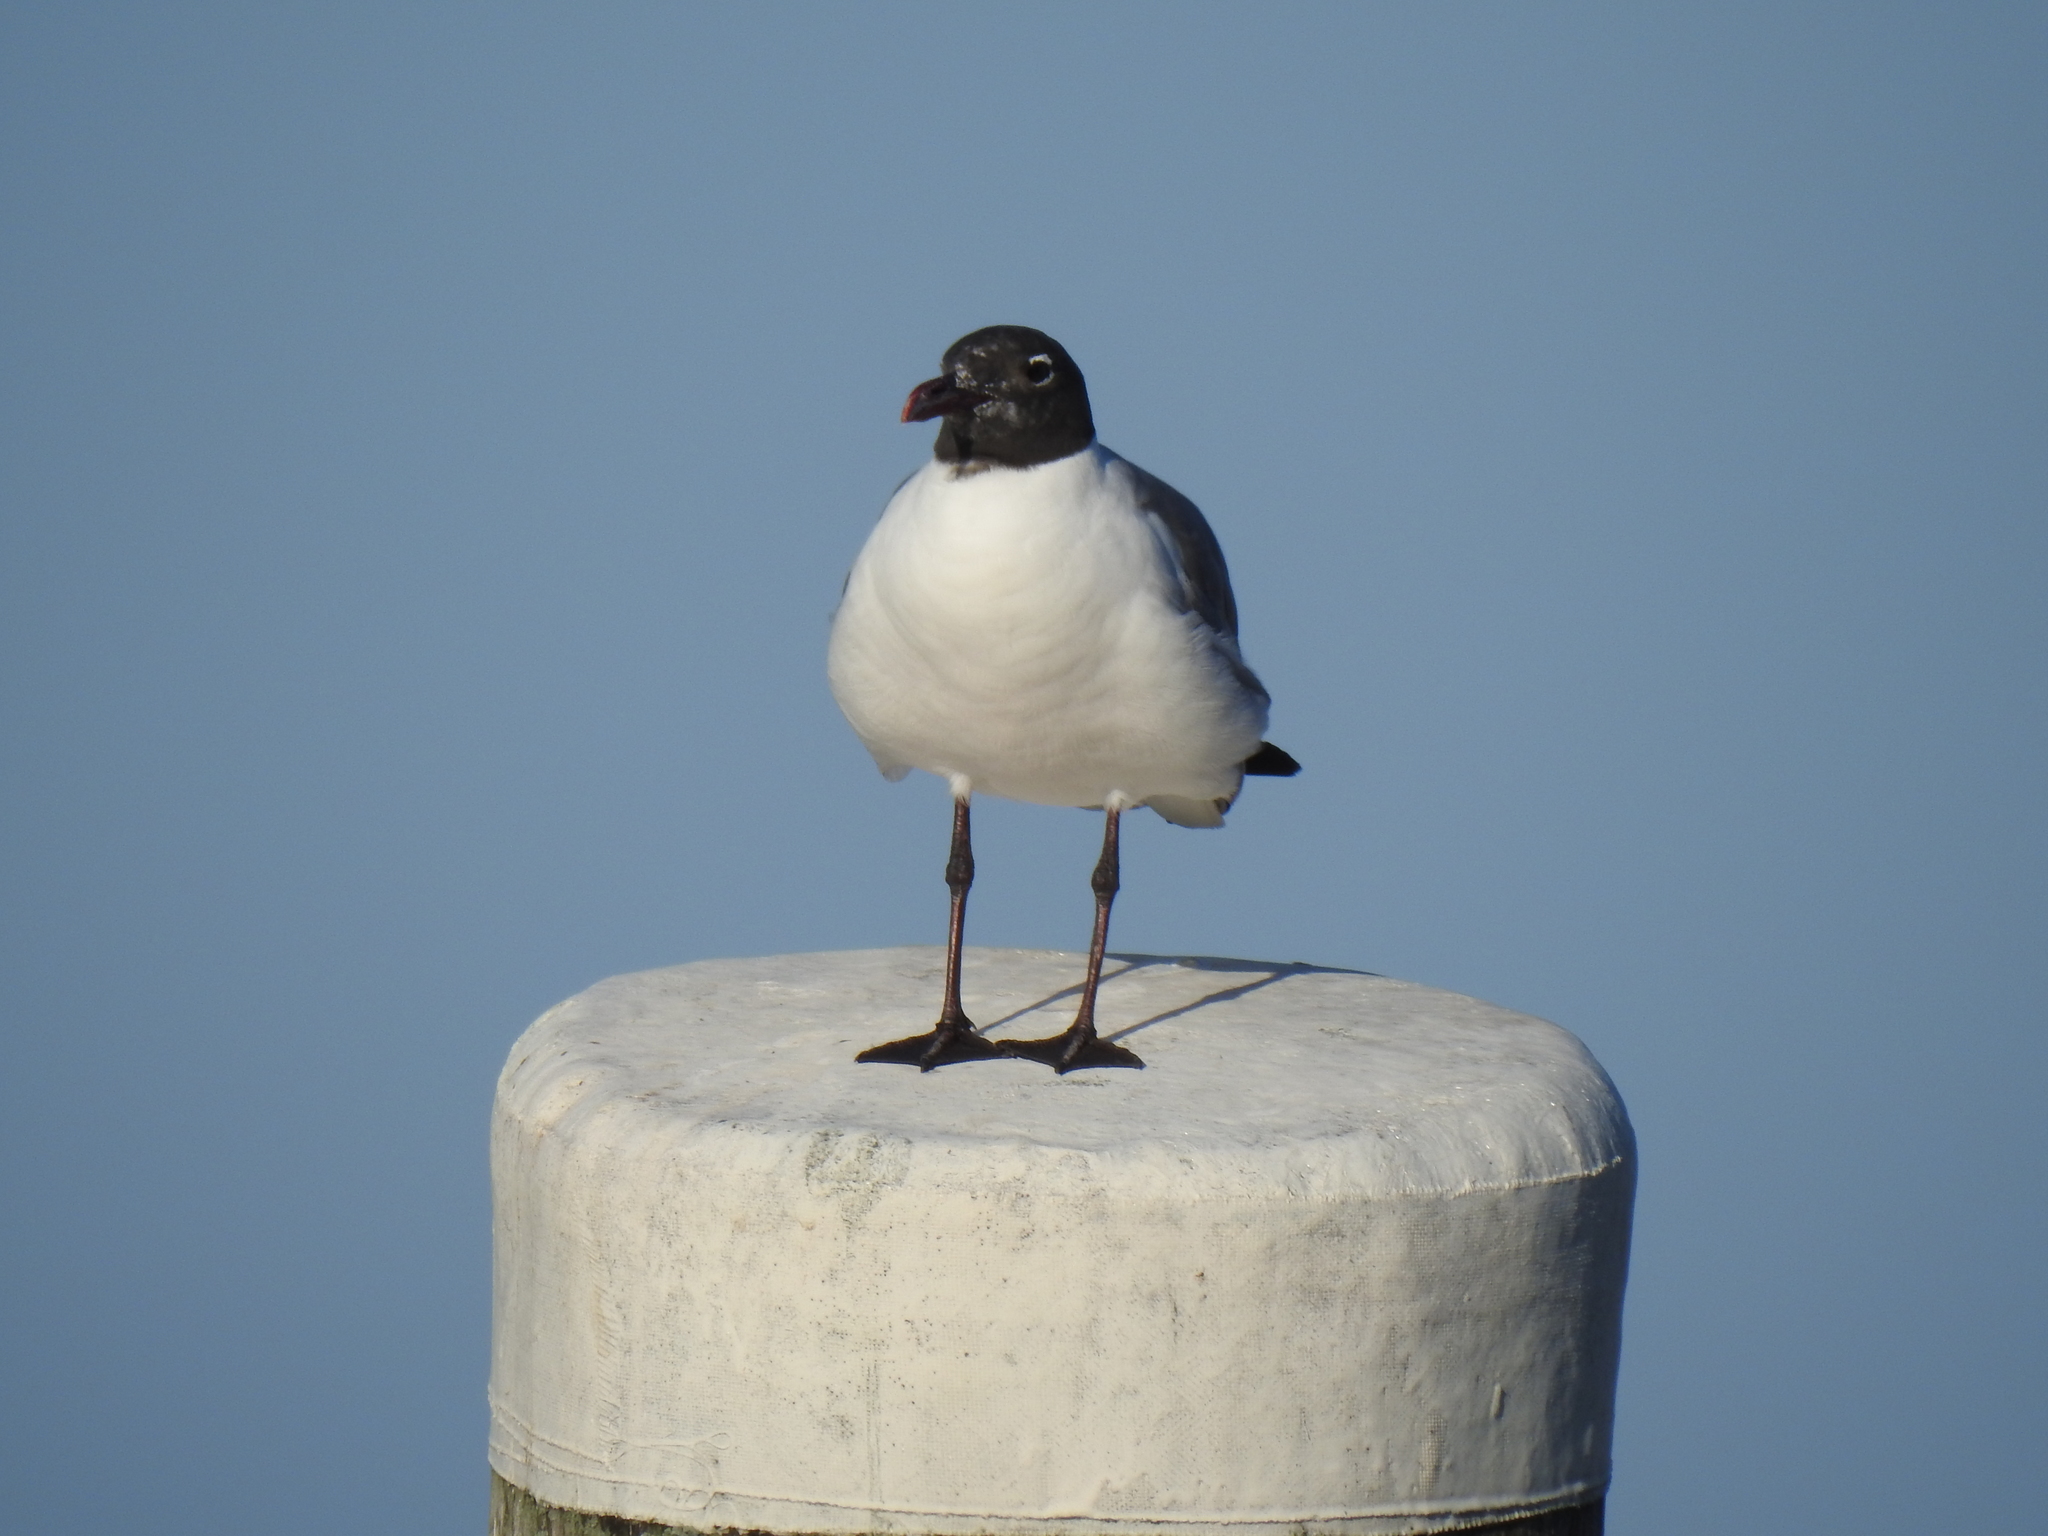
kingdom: Animalia
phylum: Chordata
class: Aves
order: Charadriiformes
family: Laridae
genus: Leucophaeus
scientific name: Leucophaeus atricilla
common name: Laughing gull
